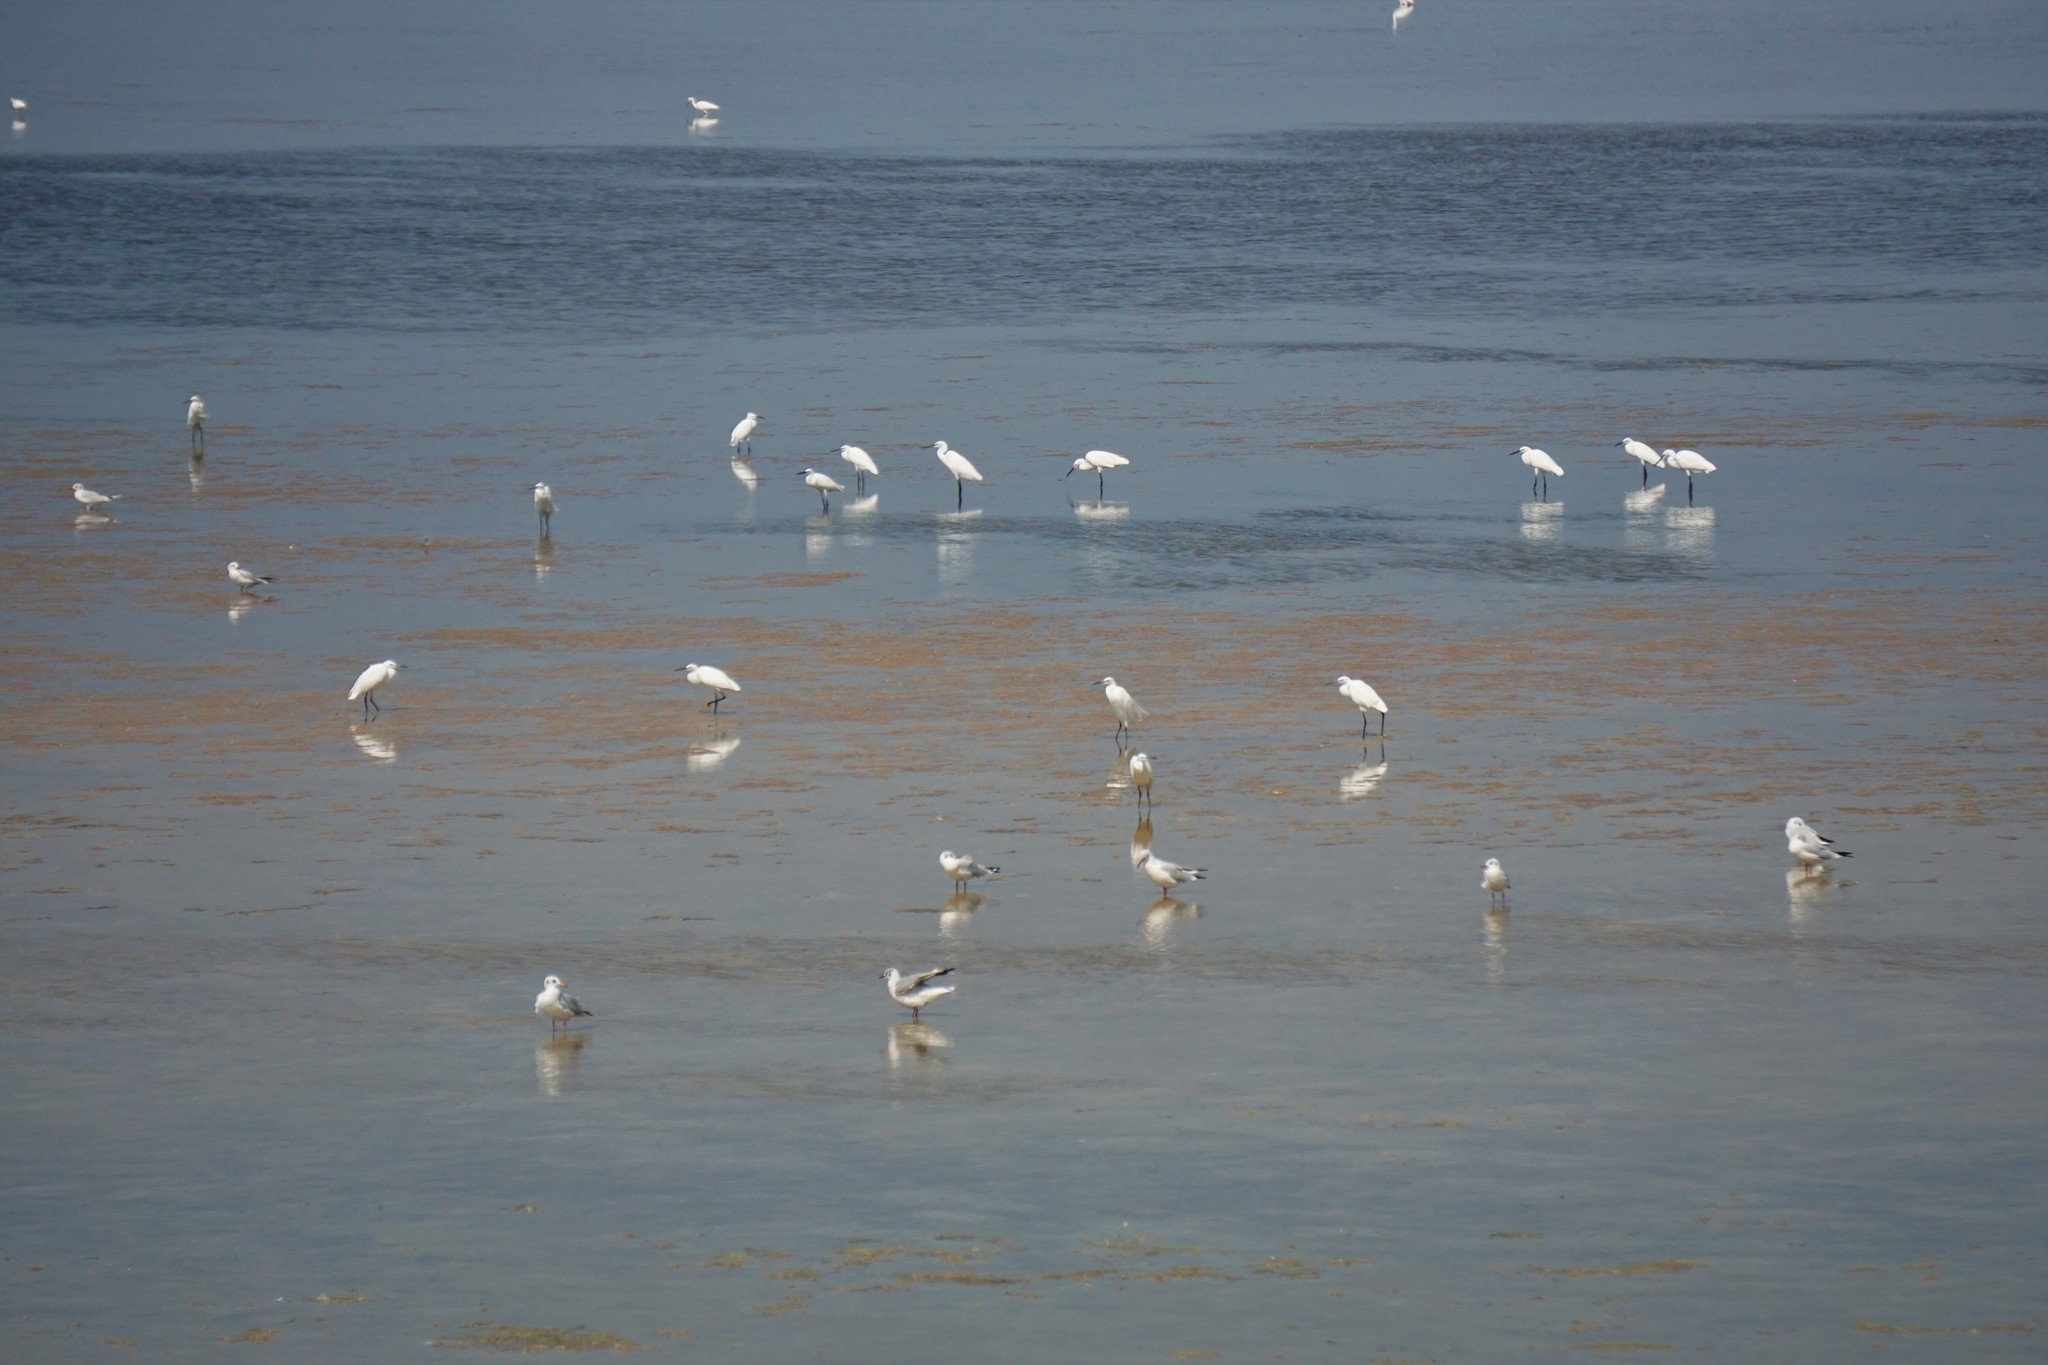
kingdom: Animalia
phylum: Chordata
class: Aves
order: Pelecaniformes
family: Ardeidae
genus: Egretta
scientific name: Egretta garzetta
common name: Little egret
